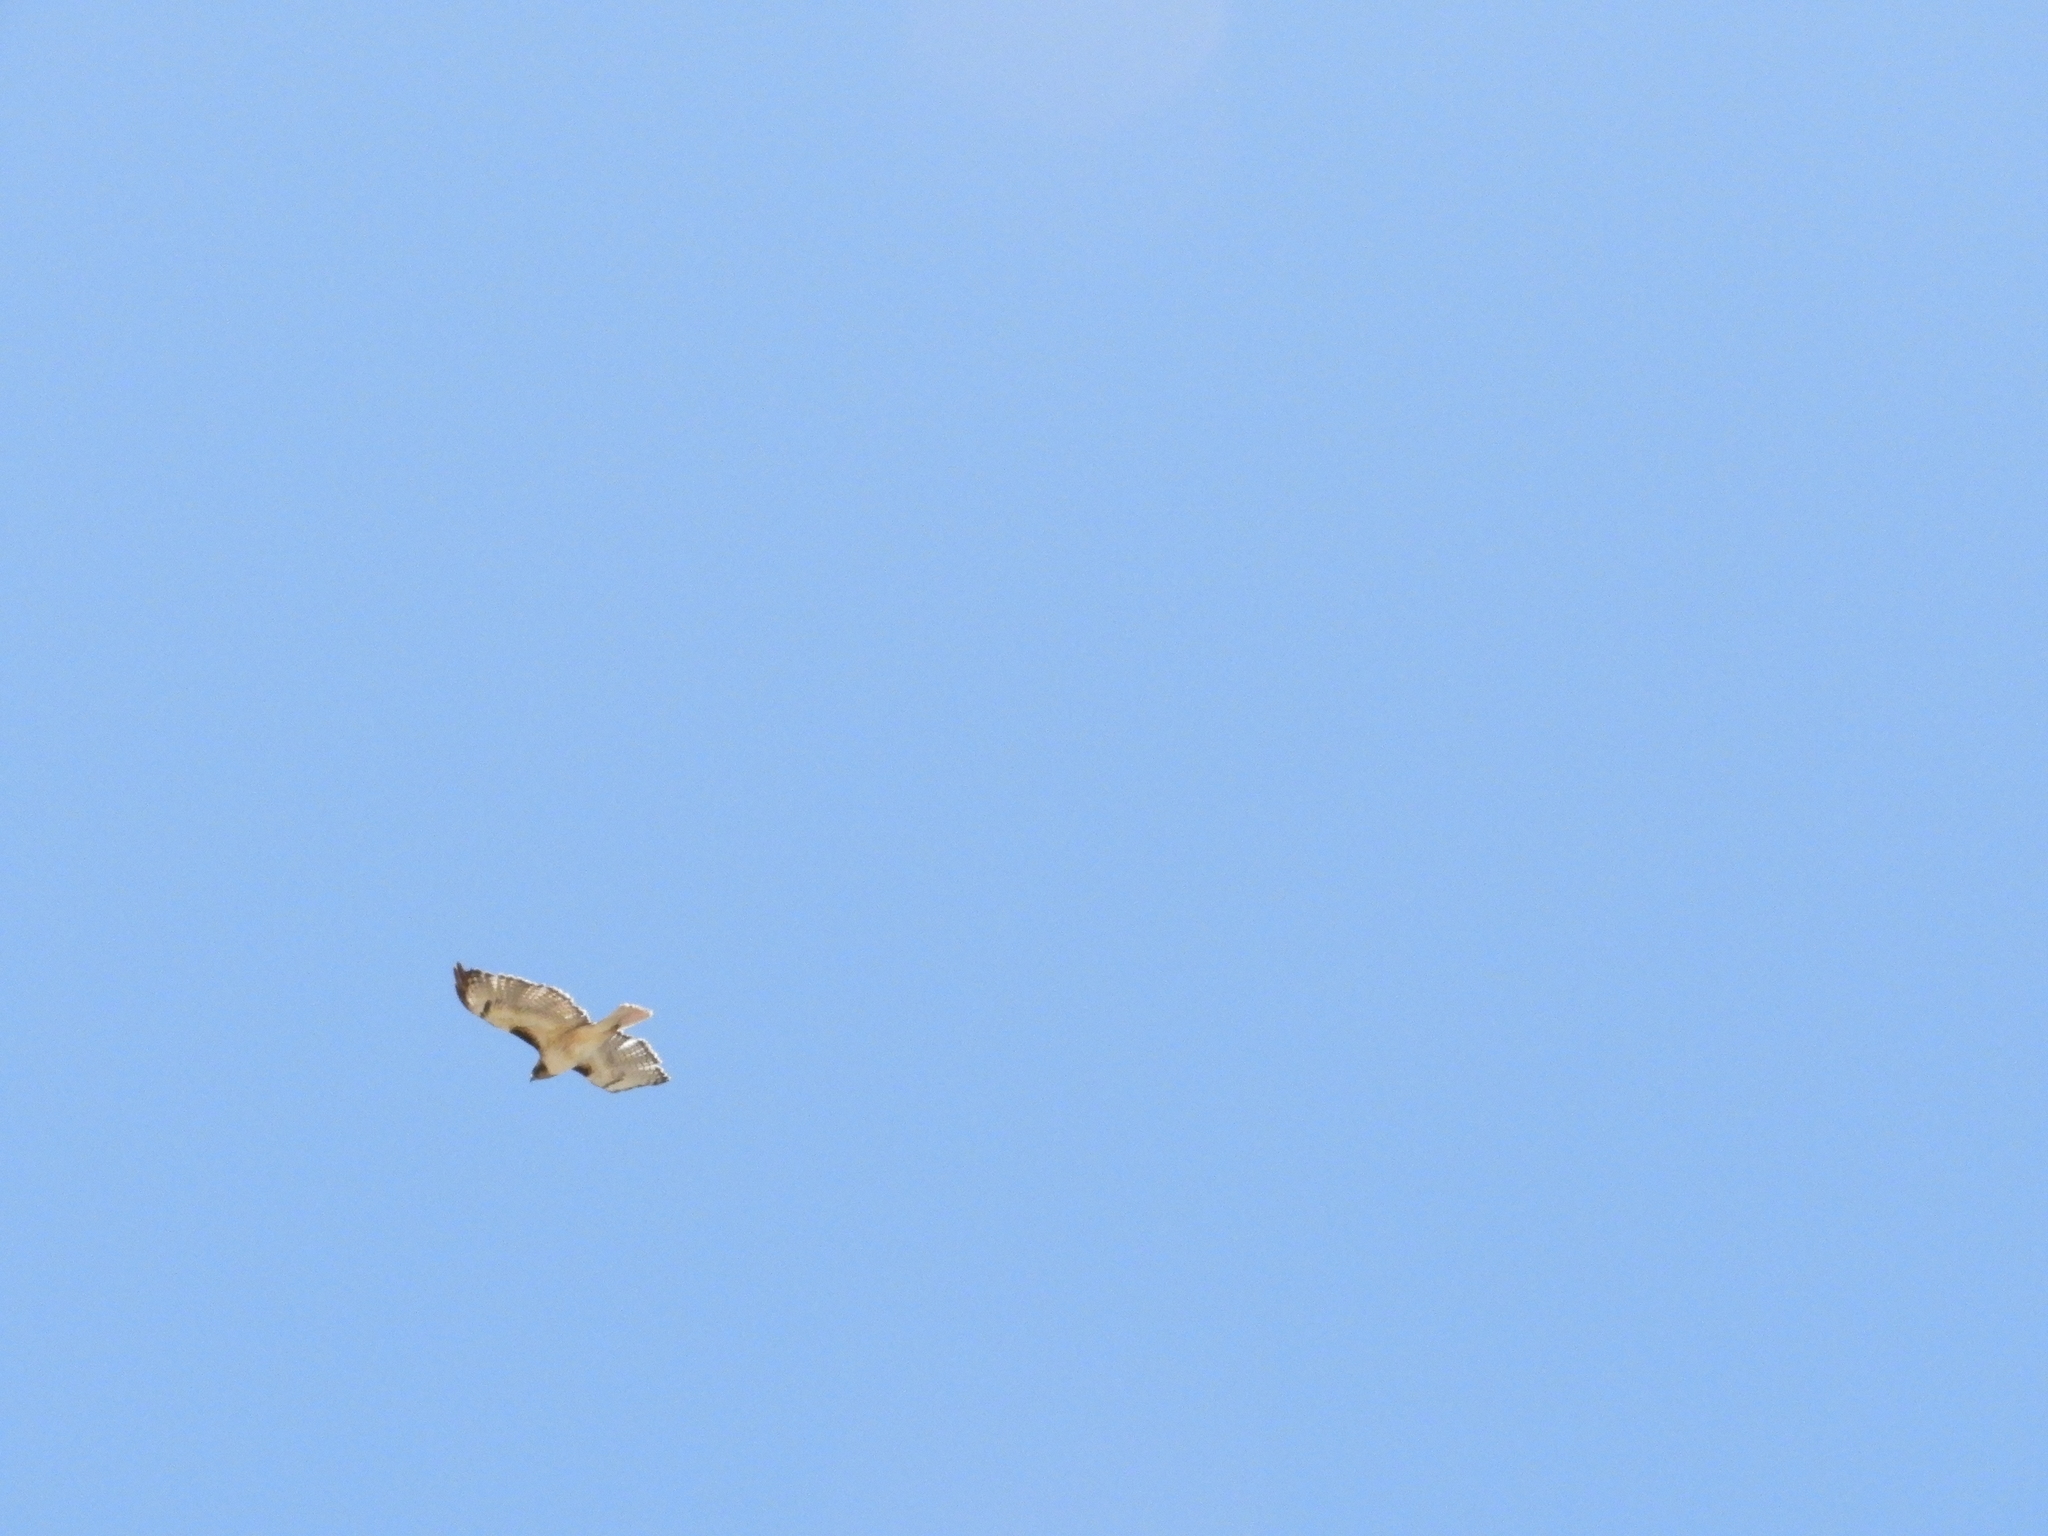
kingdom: Animalia
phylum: Chordata
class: Aves
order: Accipitriformes
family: Accipitridae
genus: Buteo
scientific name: Buteo jamaicensis
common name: Red-tailed hawk
